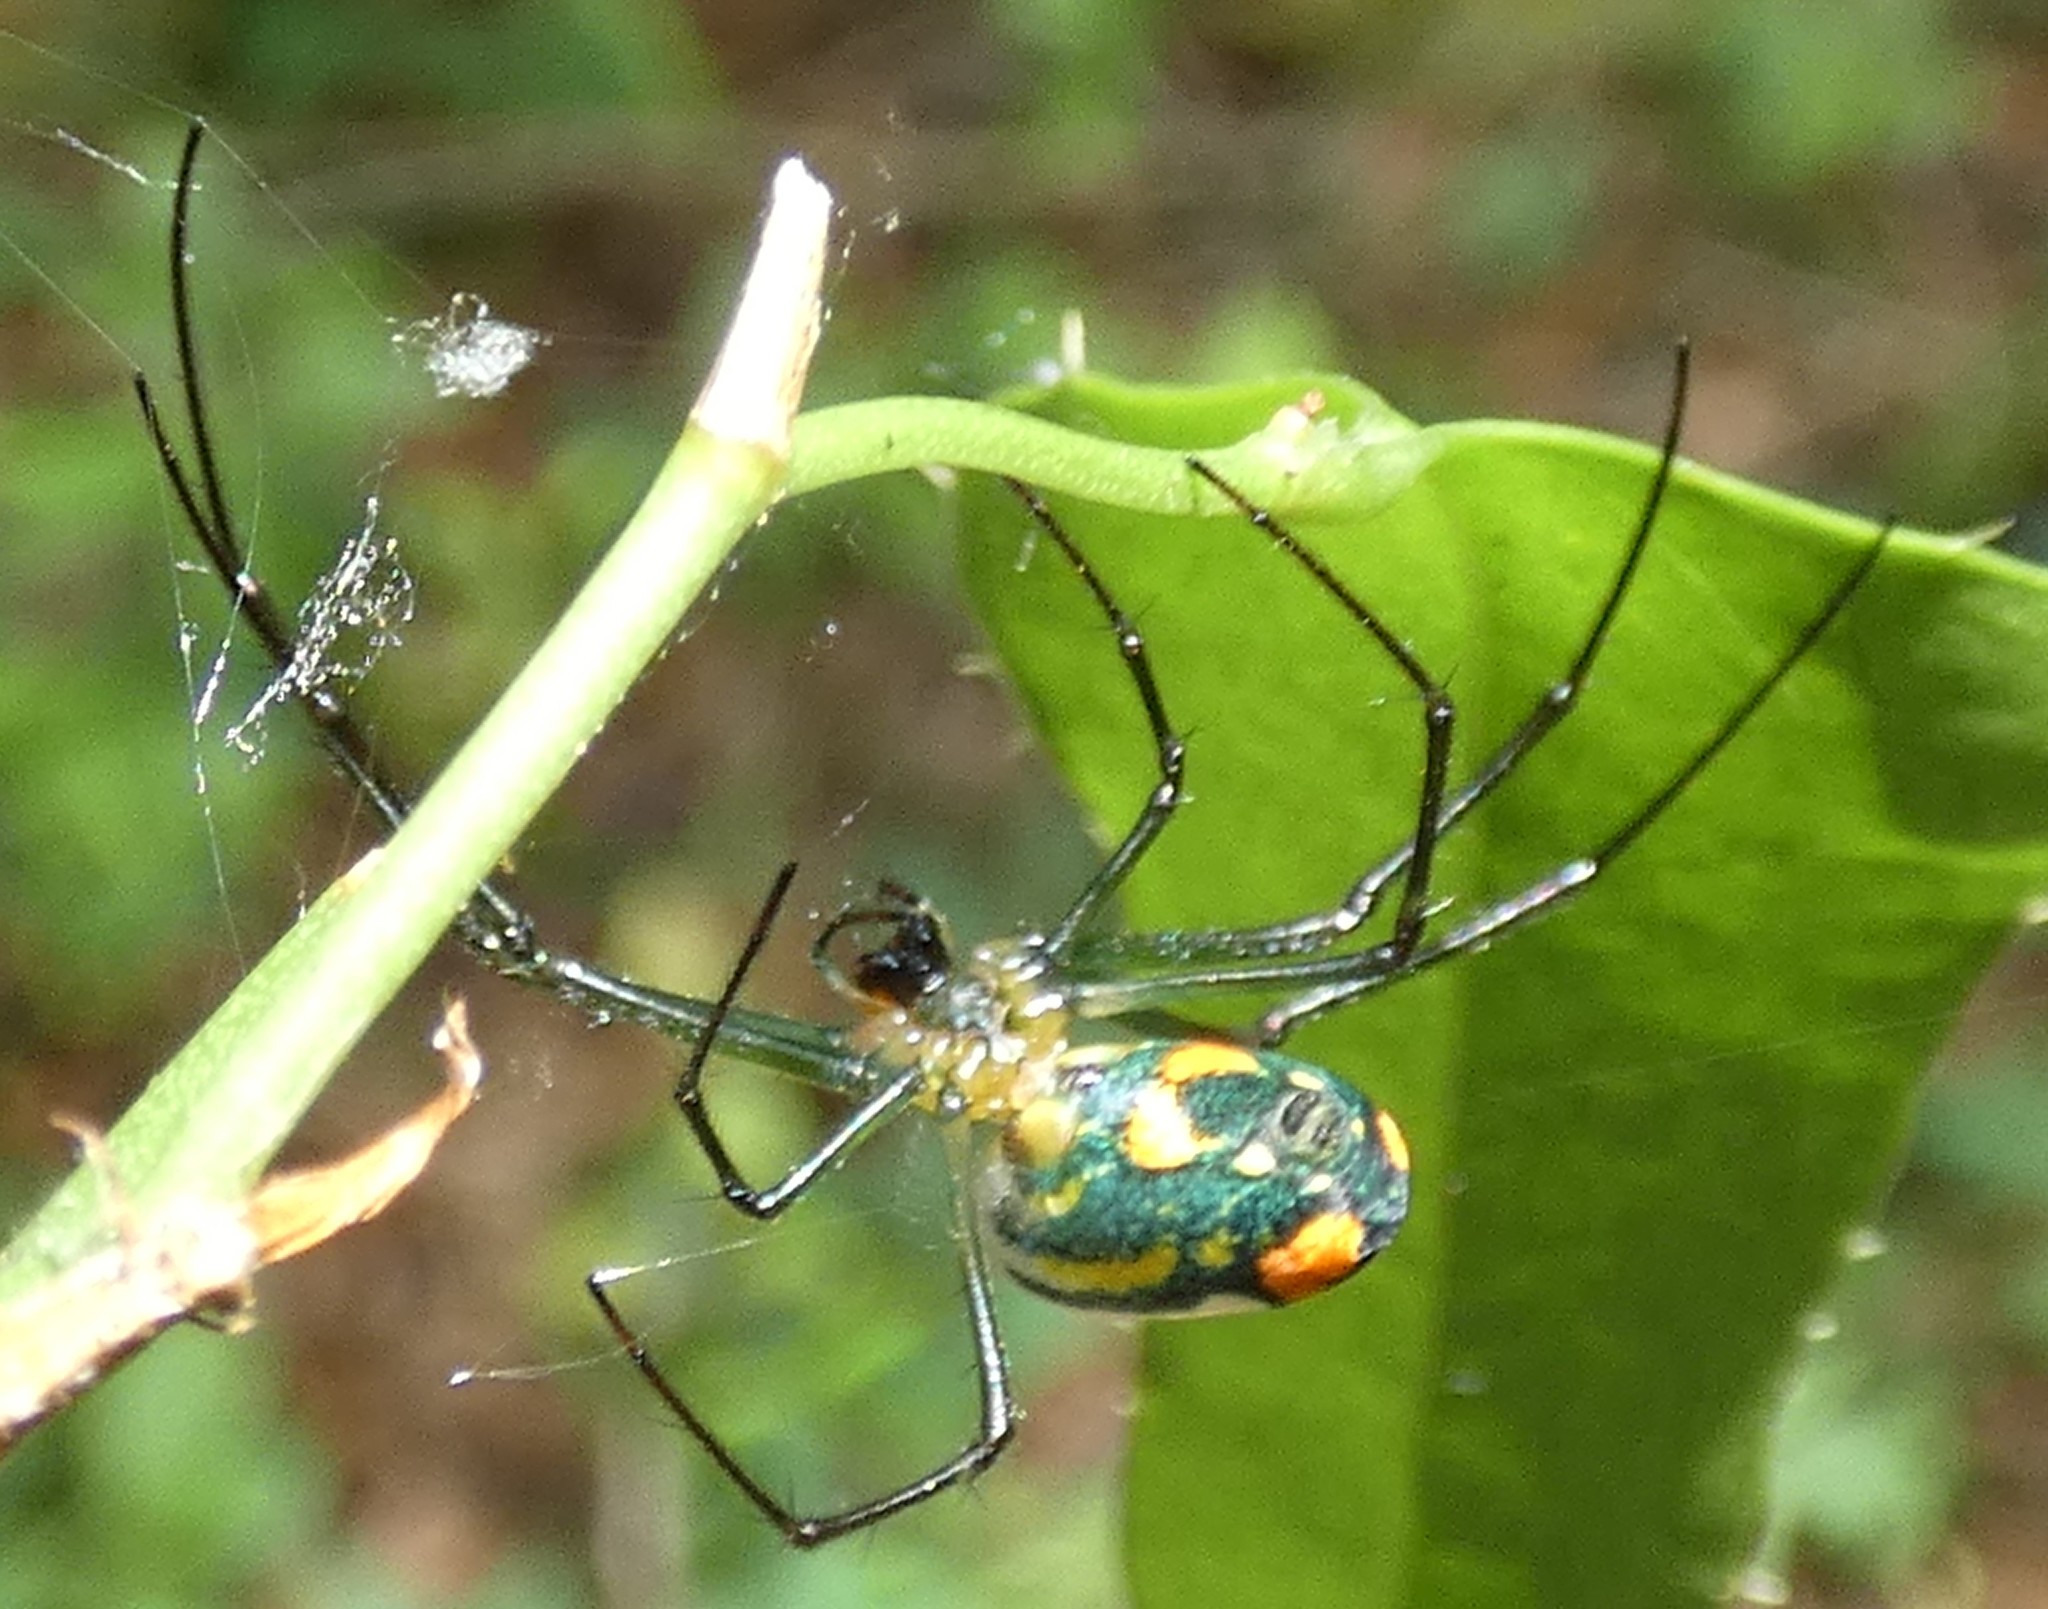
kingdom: Animalia
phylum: Arthropoda
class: Arachnida
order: Araneae
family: Tetragnathidae
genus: Leucauge
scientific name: Leucauge argyrobapta
